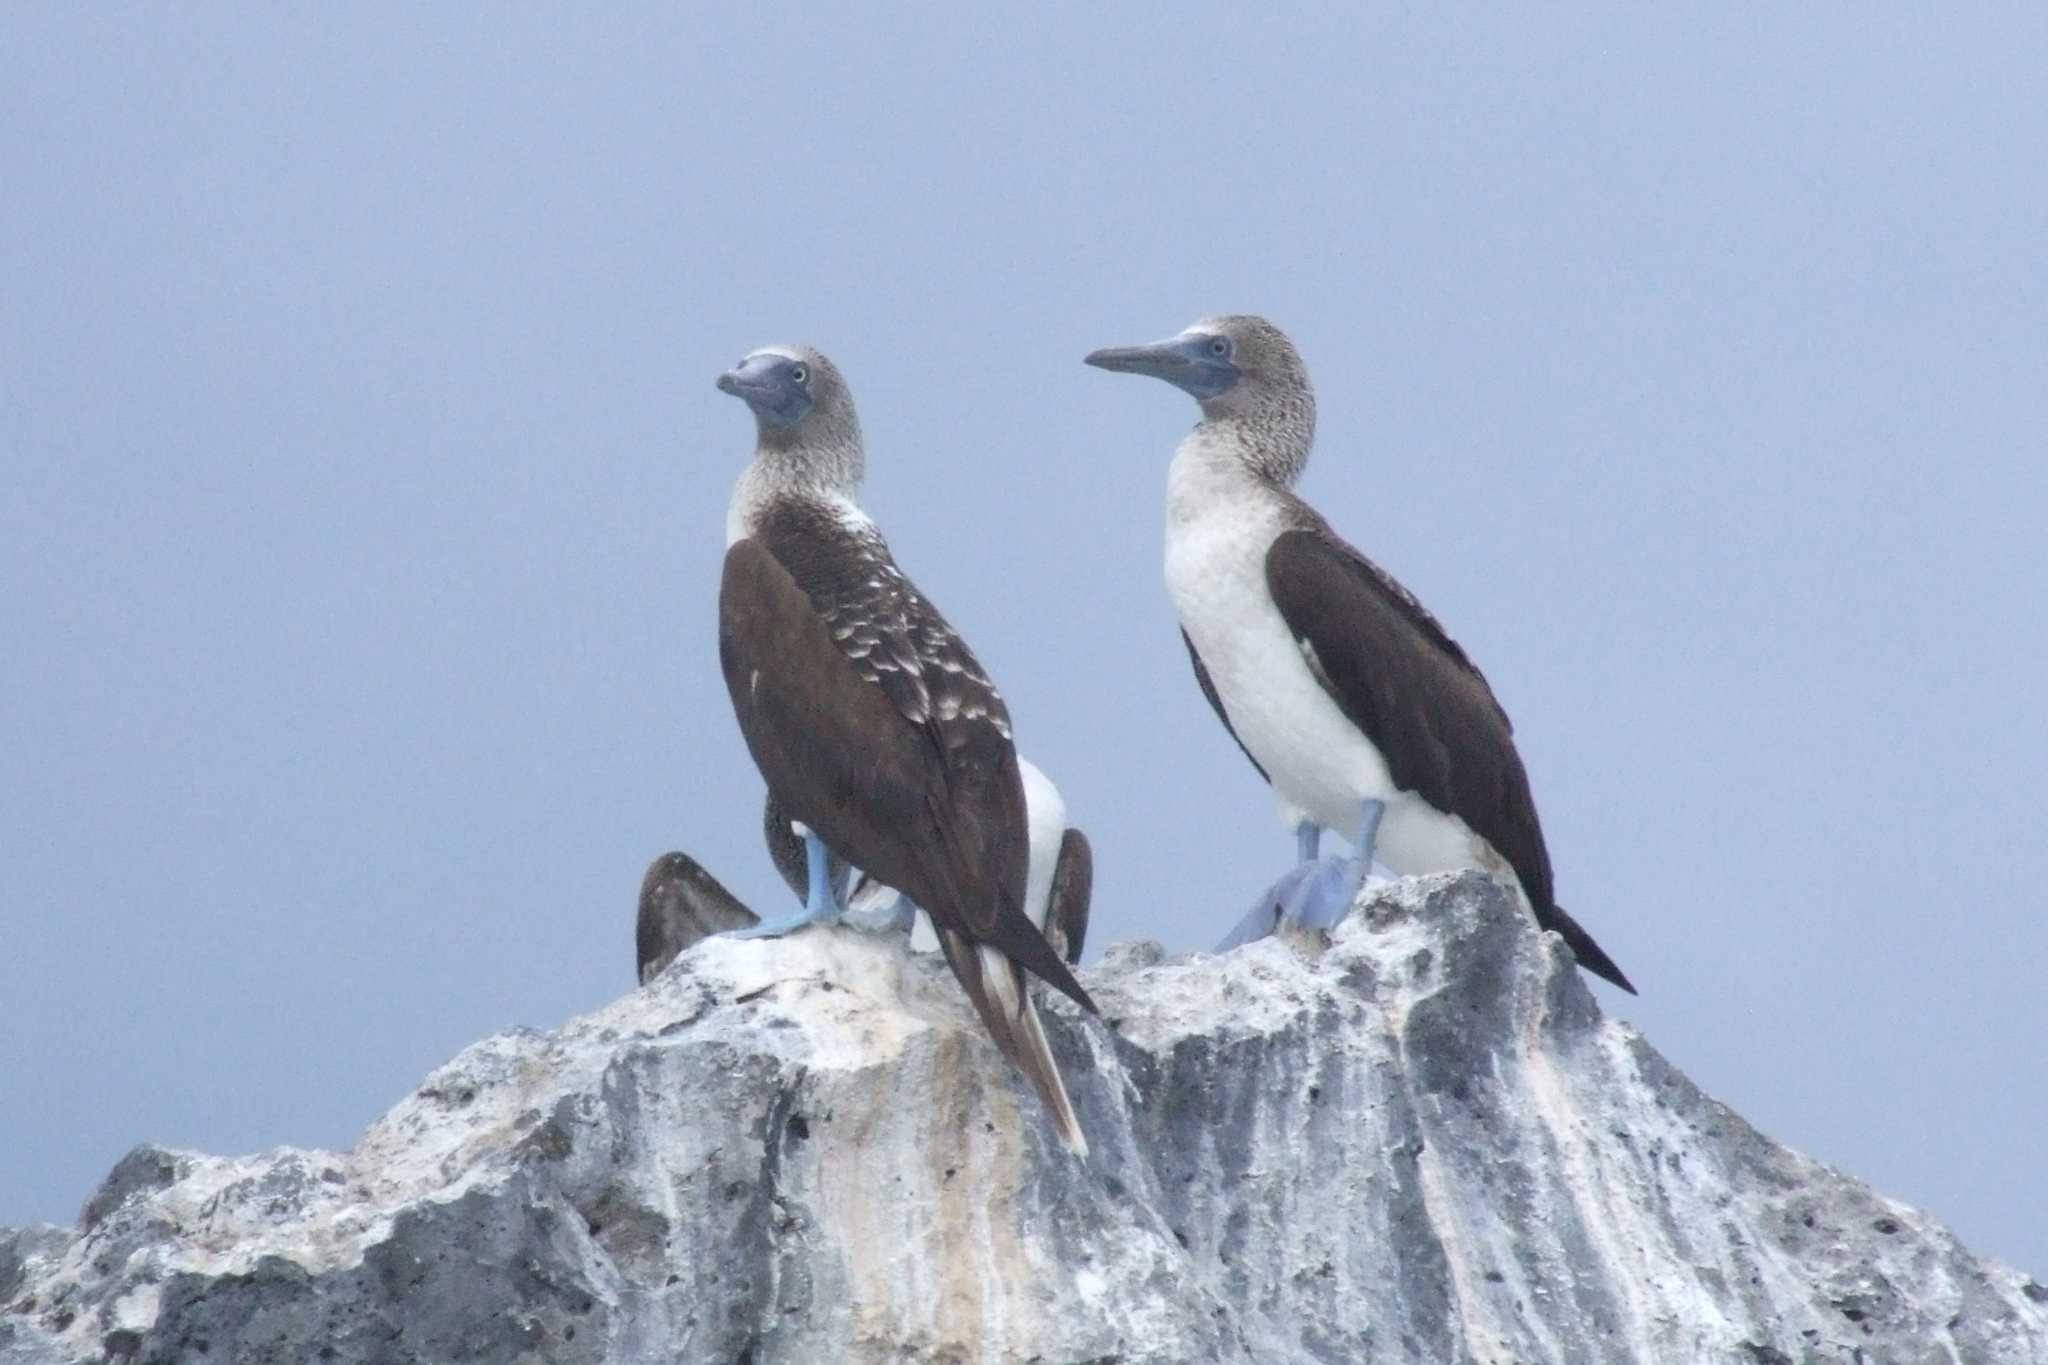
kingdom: Animalia
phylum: Chordata
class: Aves
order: Suliformes
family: Sulidae
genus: Sula
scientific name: Sula nebouxii
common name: Blue-footed booby
